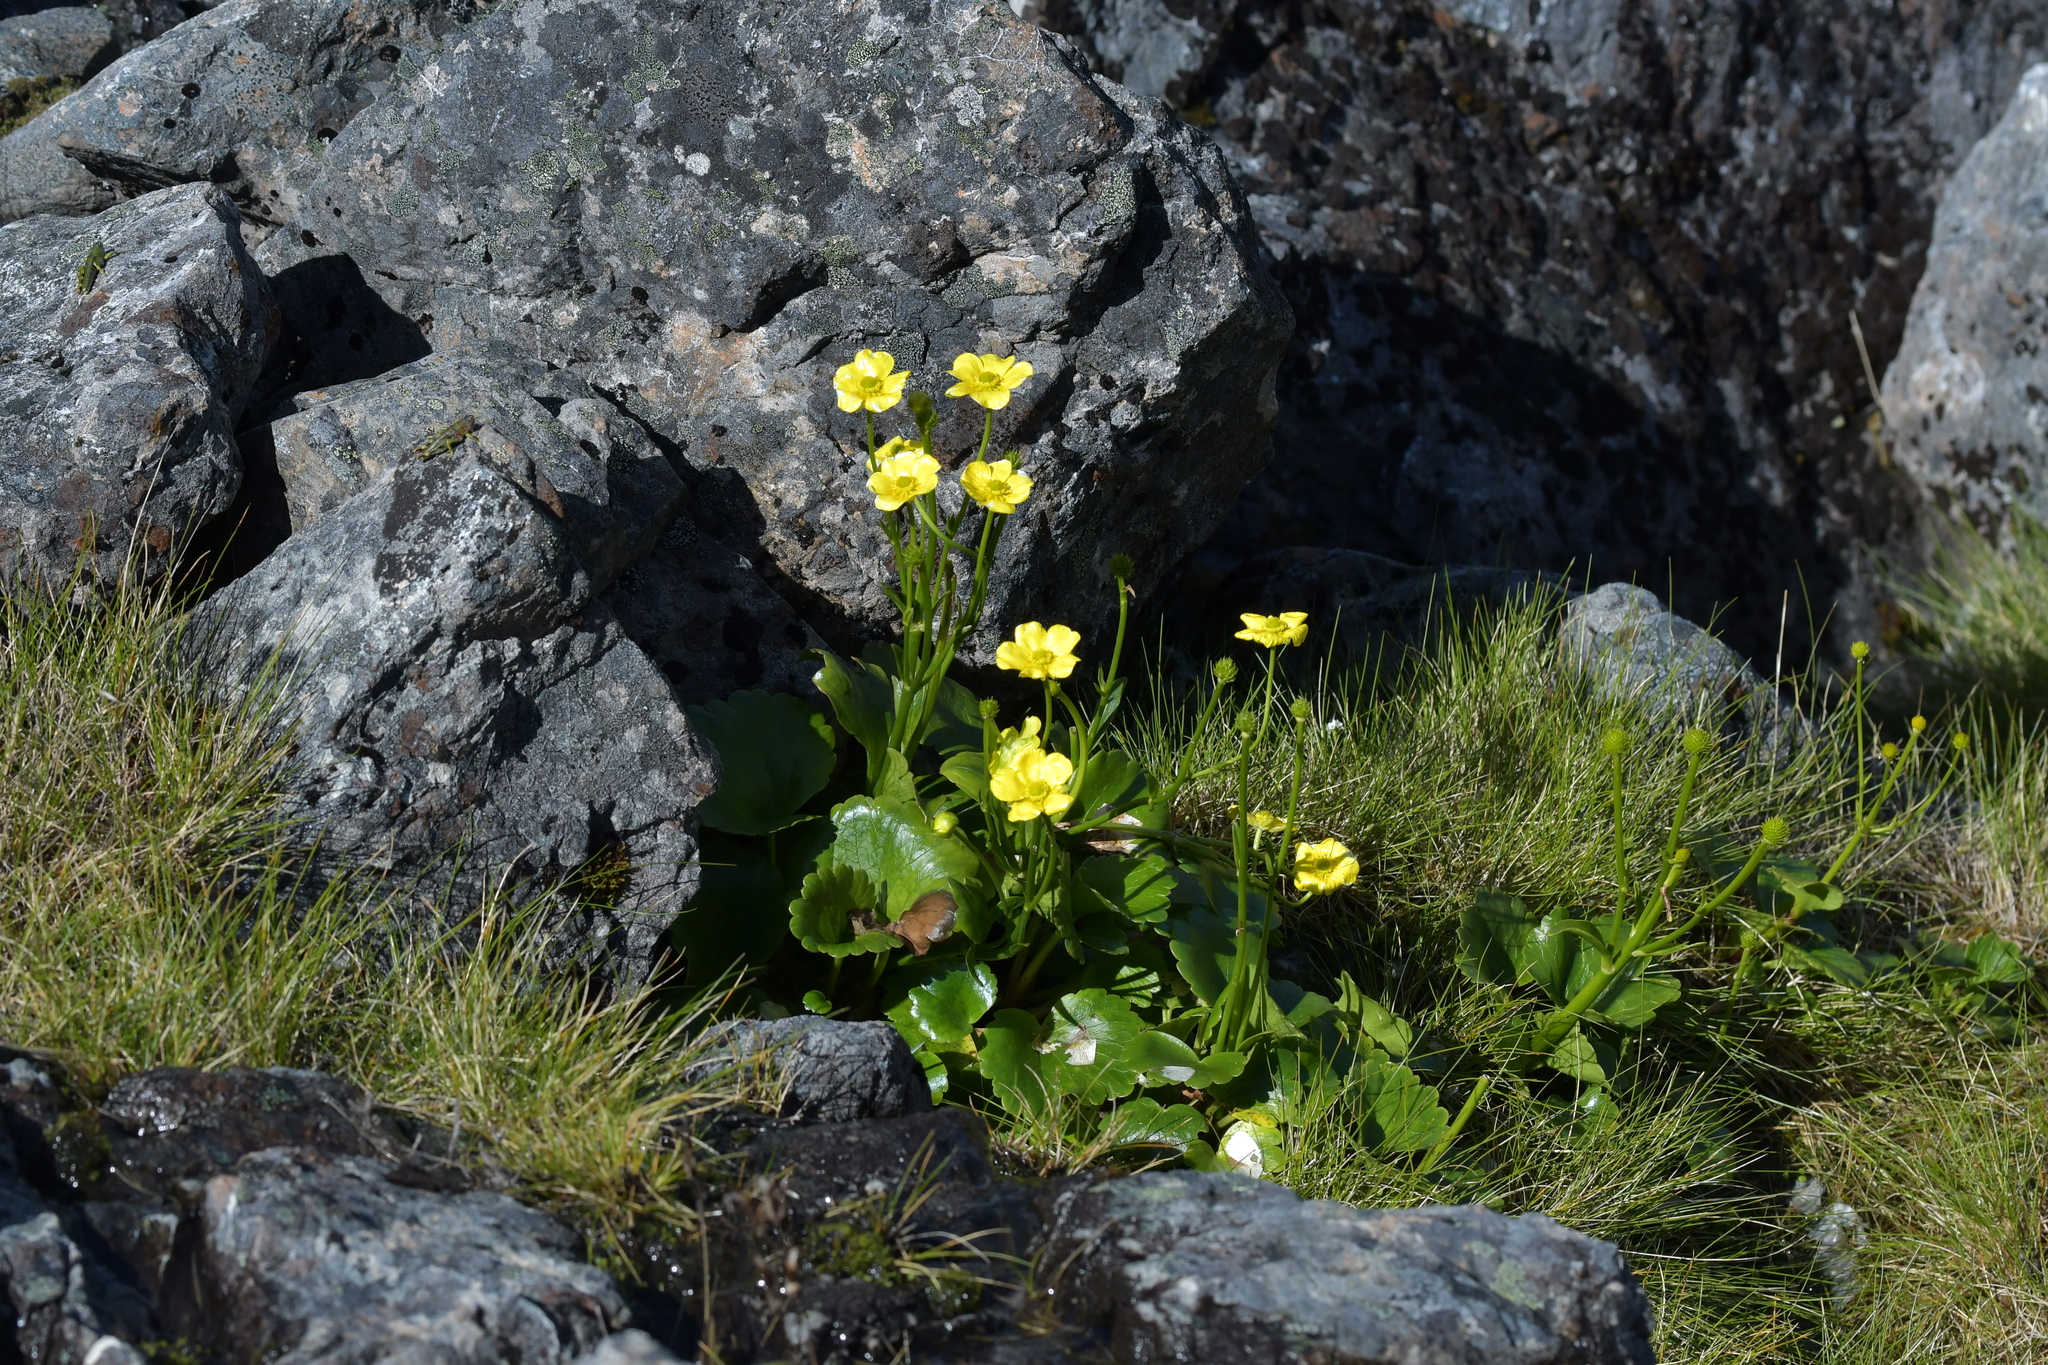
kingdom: Plantae
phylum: Tracheophyta
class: Magnoliopsida
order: Ranunculales
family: Ranunculaceae
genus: Ranunculus
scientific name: Ranunculus insignis
